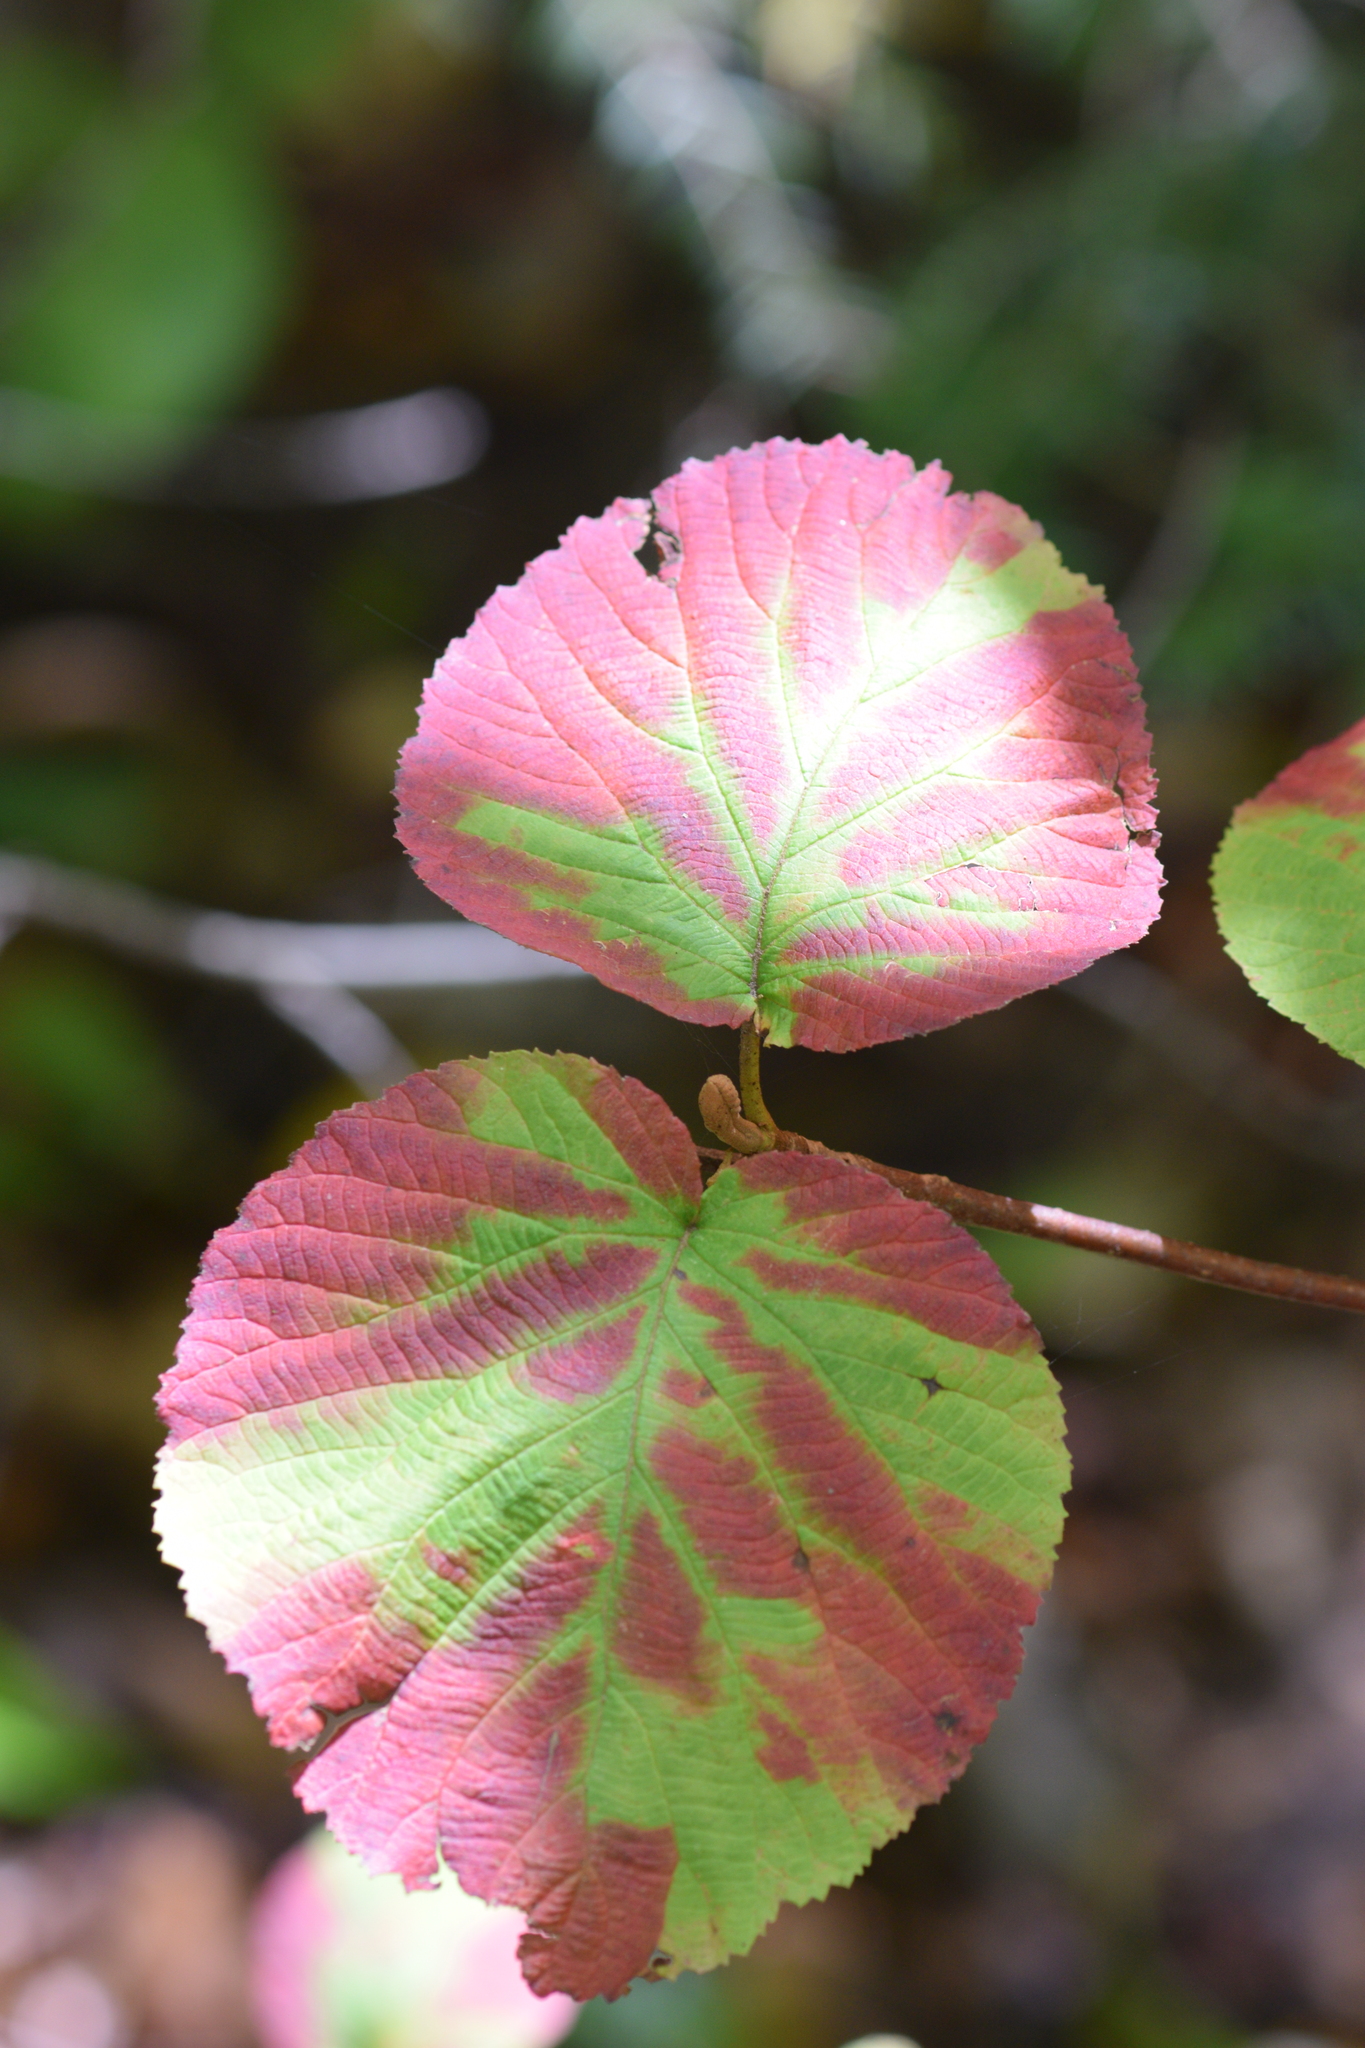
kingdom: Plantae
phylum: Tracheophyta
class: Magnoliopsida
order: Dipsacales
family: Viburnaceae
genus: Viburnum
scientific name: Viburnum lantanoides
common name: Hobblebush
